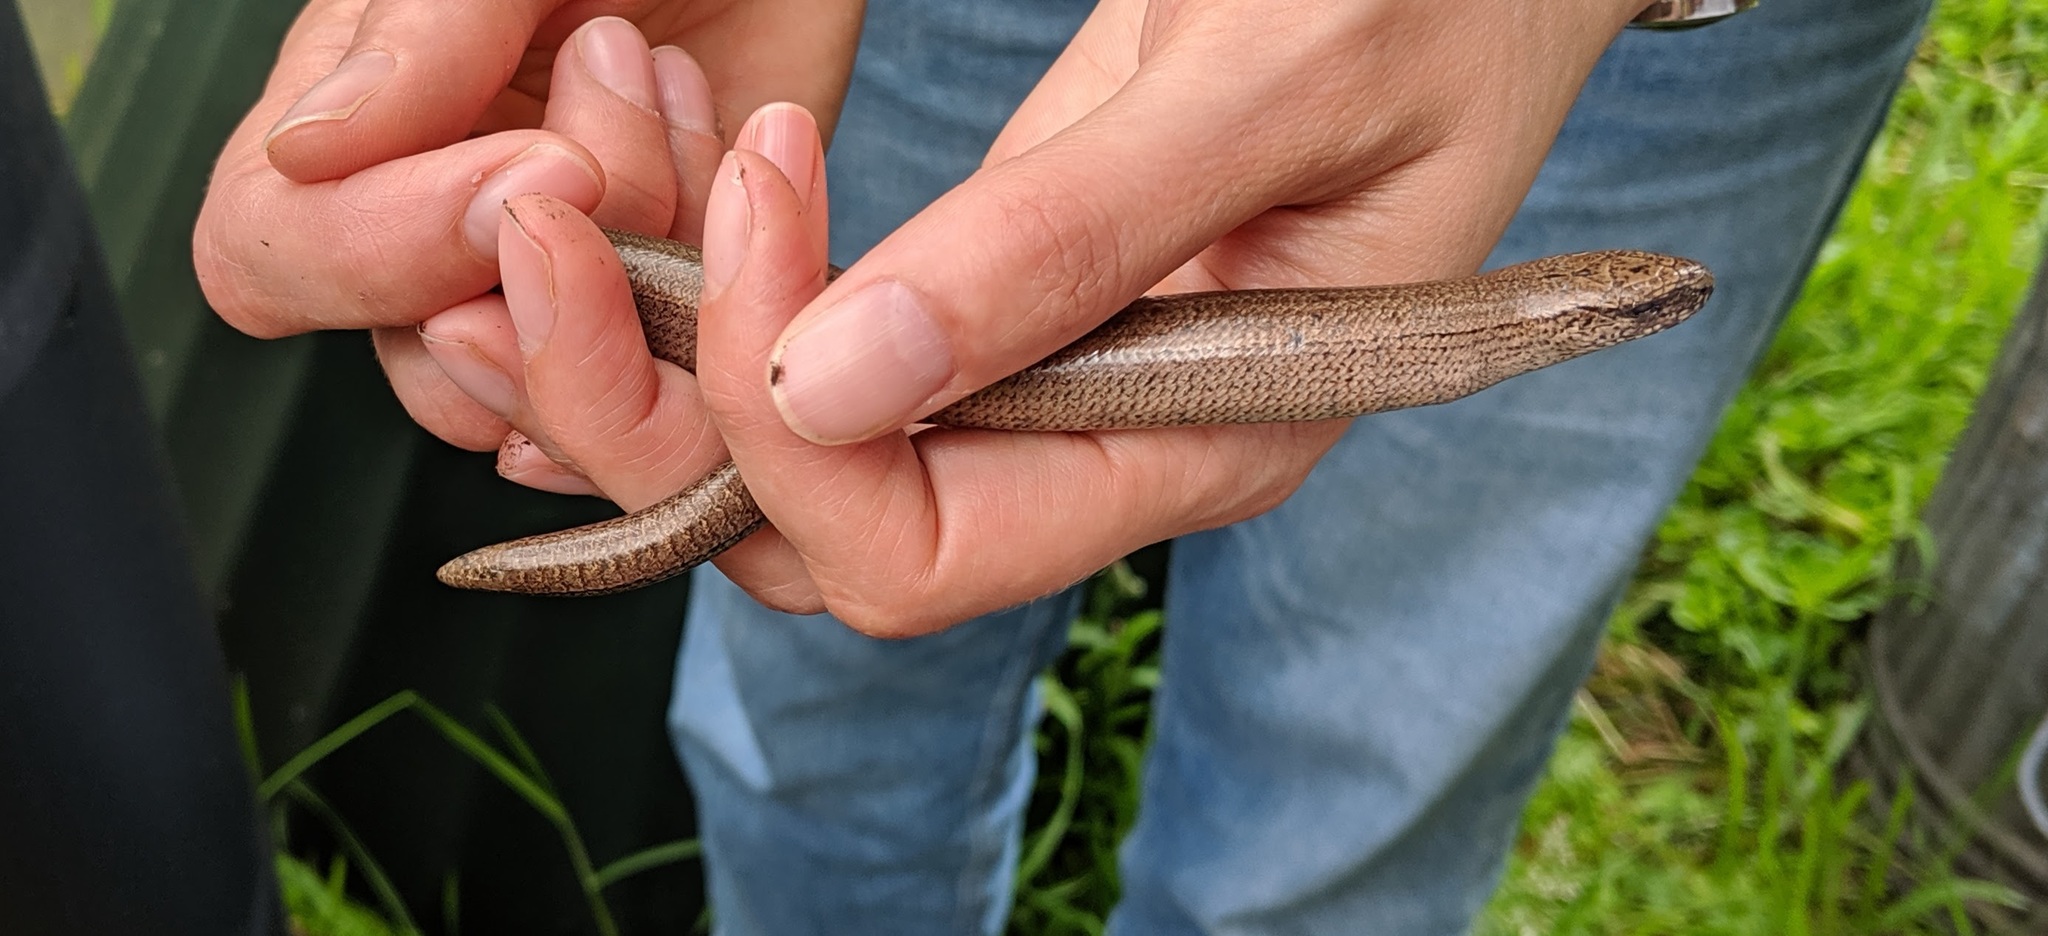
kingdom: Animalia
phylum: Chordata
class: Squamata
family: Anguidae
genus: Anguis
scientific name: Anguis fragilis
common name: Slow worm
